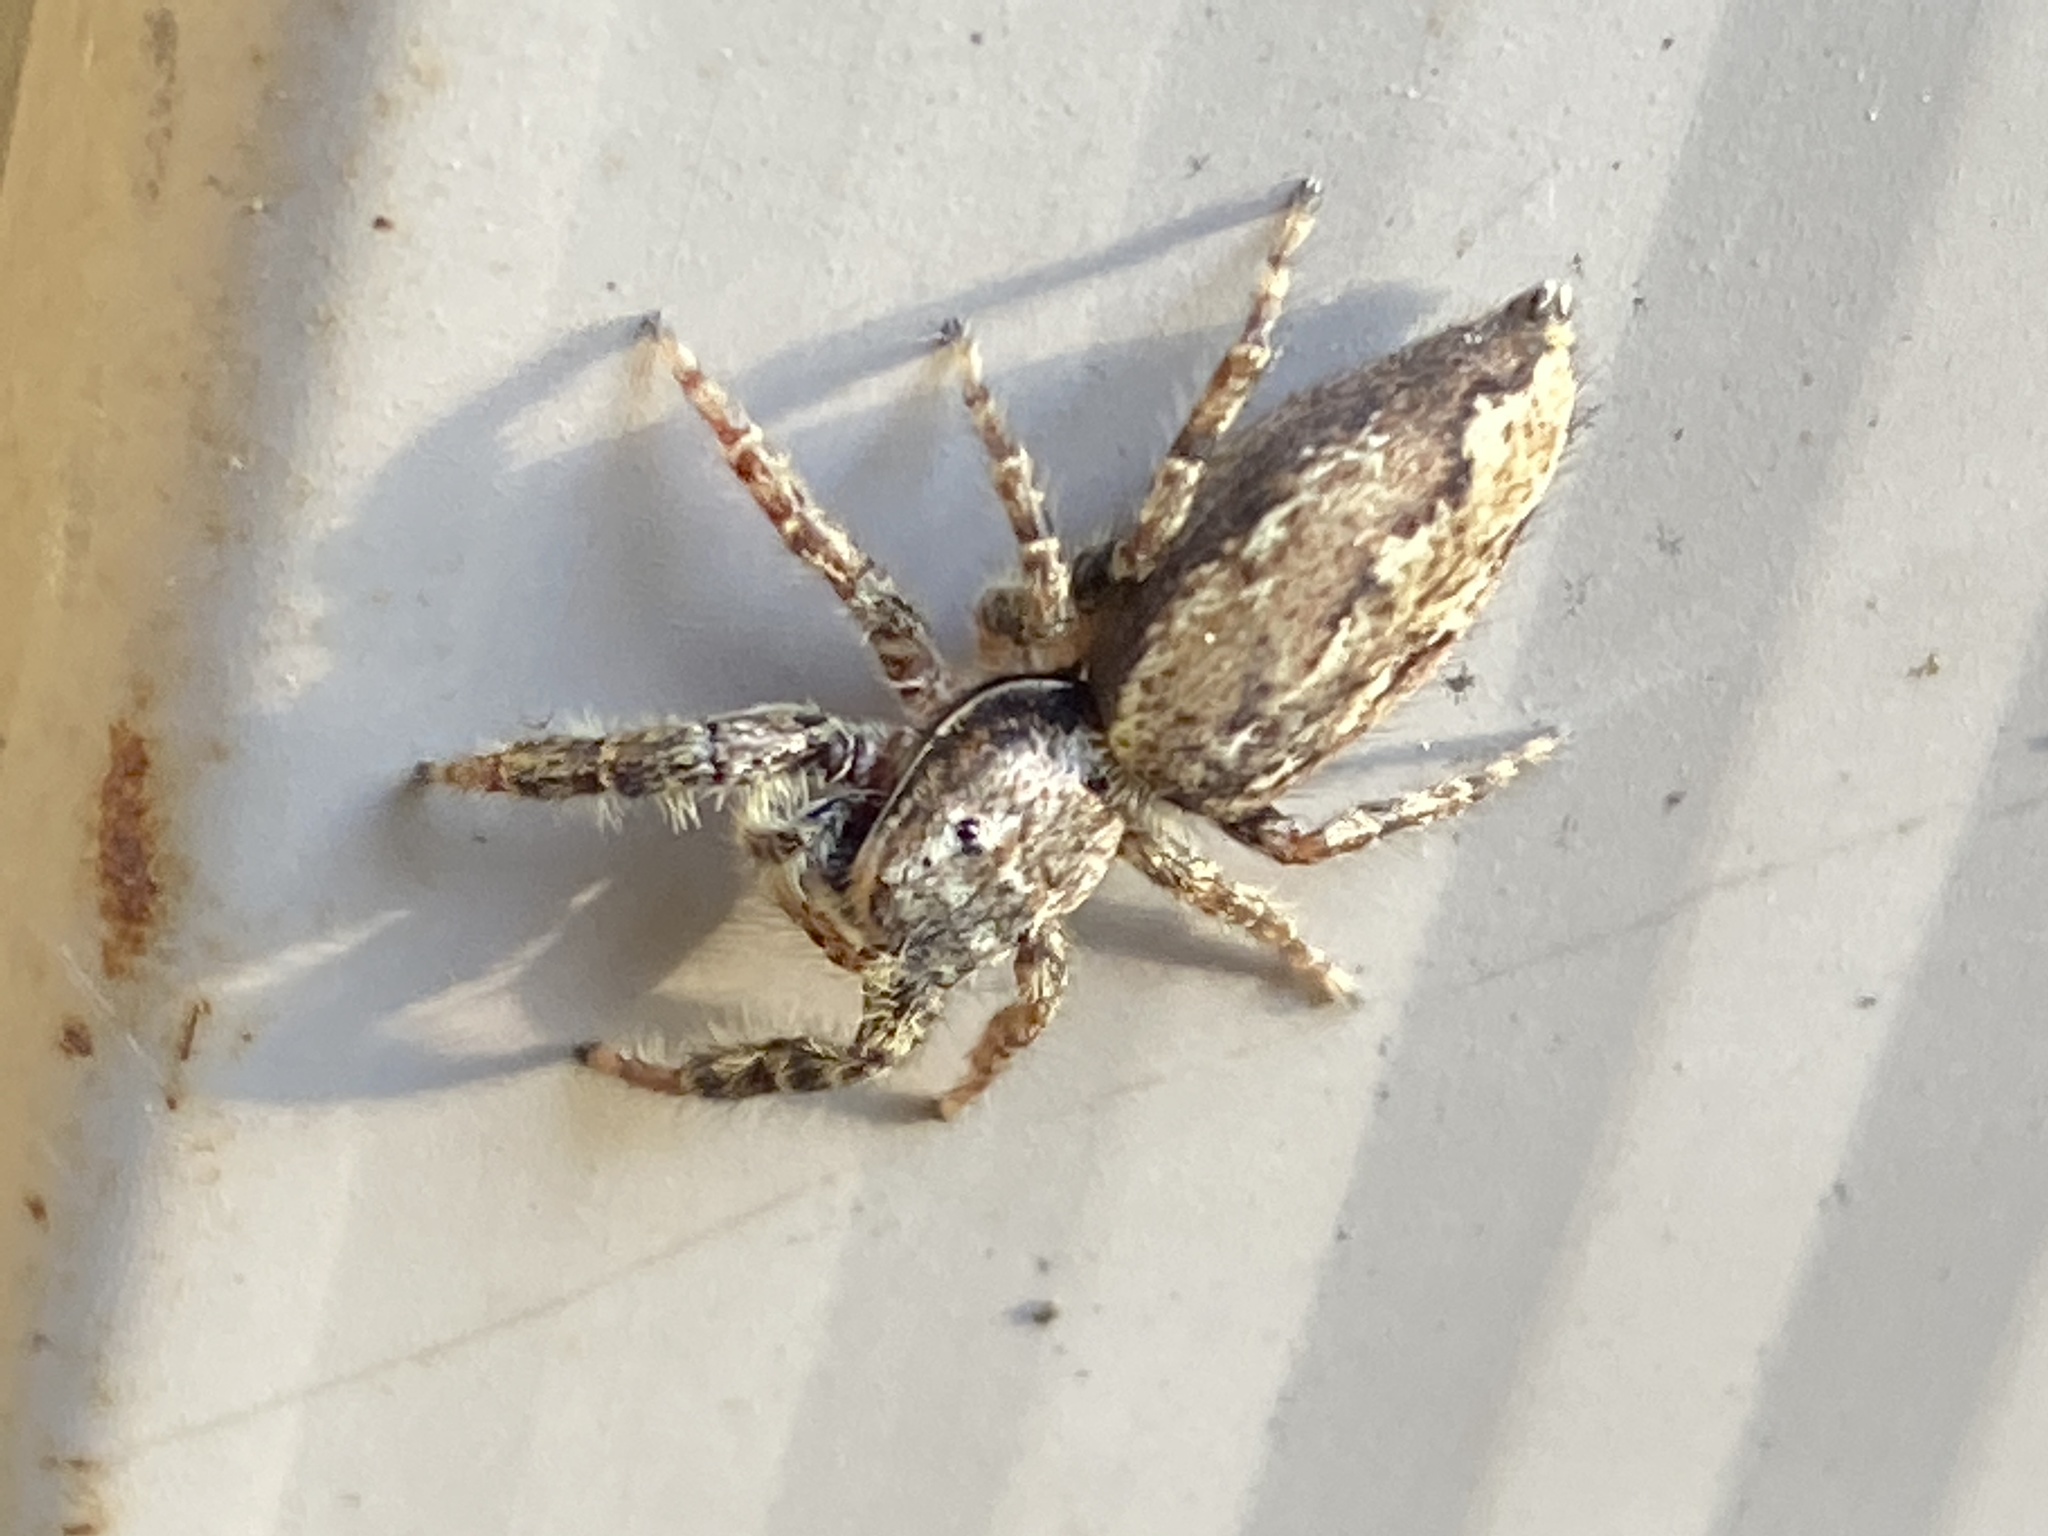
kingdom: Animalia
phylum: Arthropoda
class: Arachnida
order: Araneae
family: Salticidae
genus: Marpissa
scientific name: Marpissa muscosa
